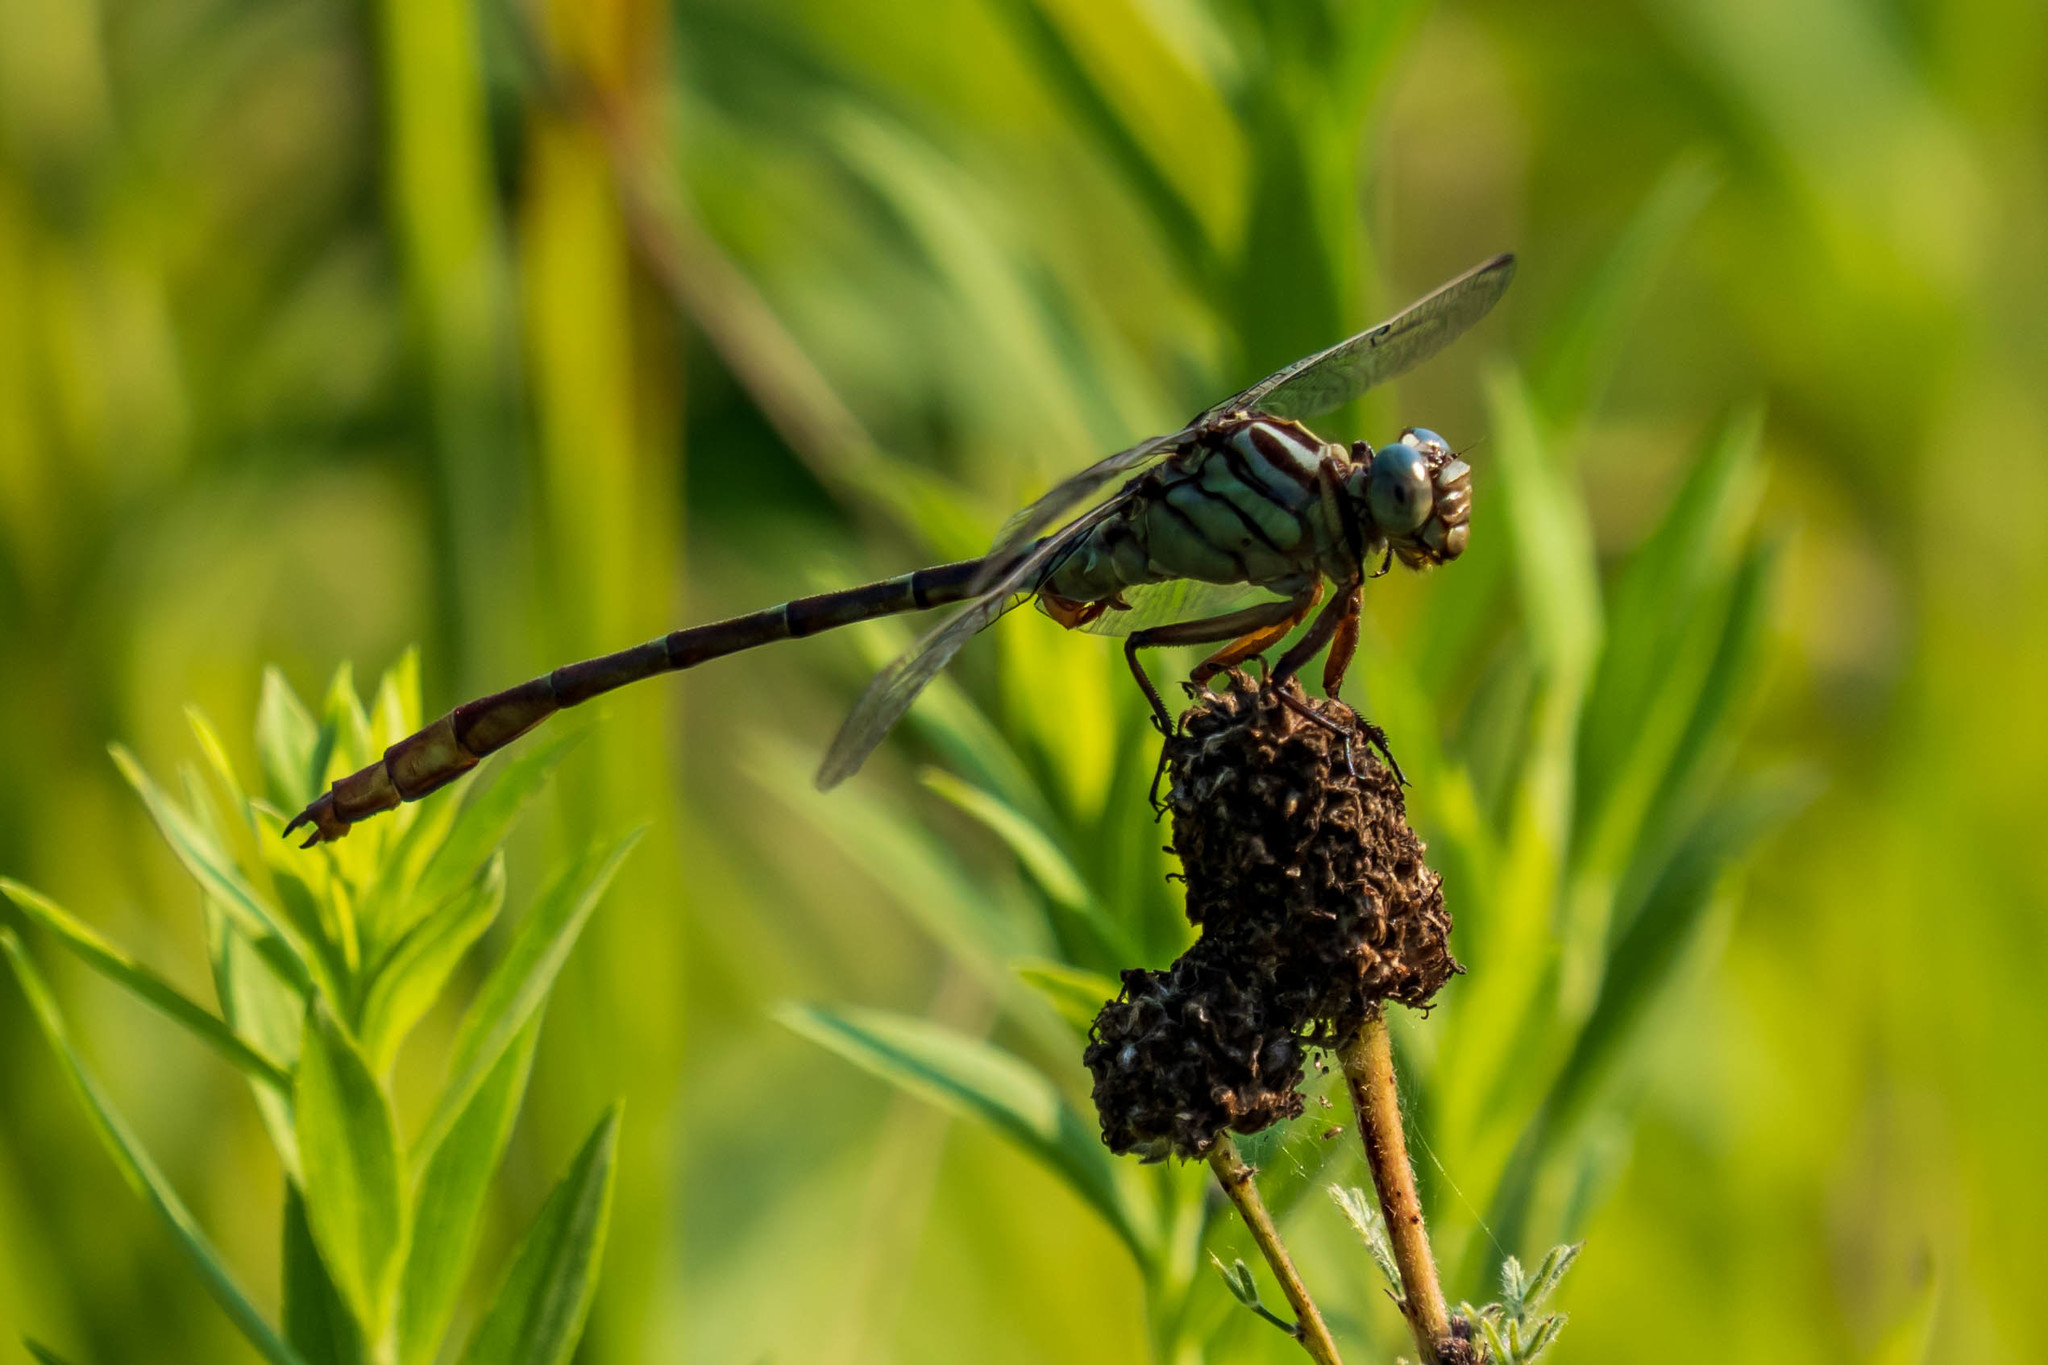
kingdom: Animalia
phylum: Arthropoda
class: Insecta
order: Odonata
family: Gomphidae
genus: Stylurus
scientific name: Stylurus plagiatus
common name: Russet-tipped clubtail
